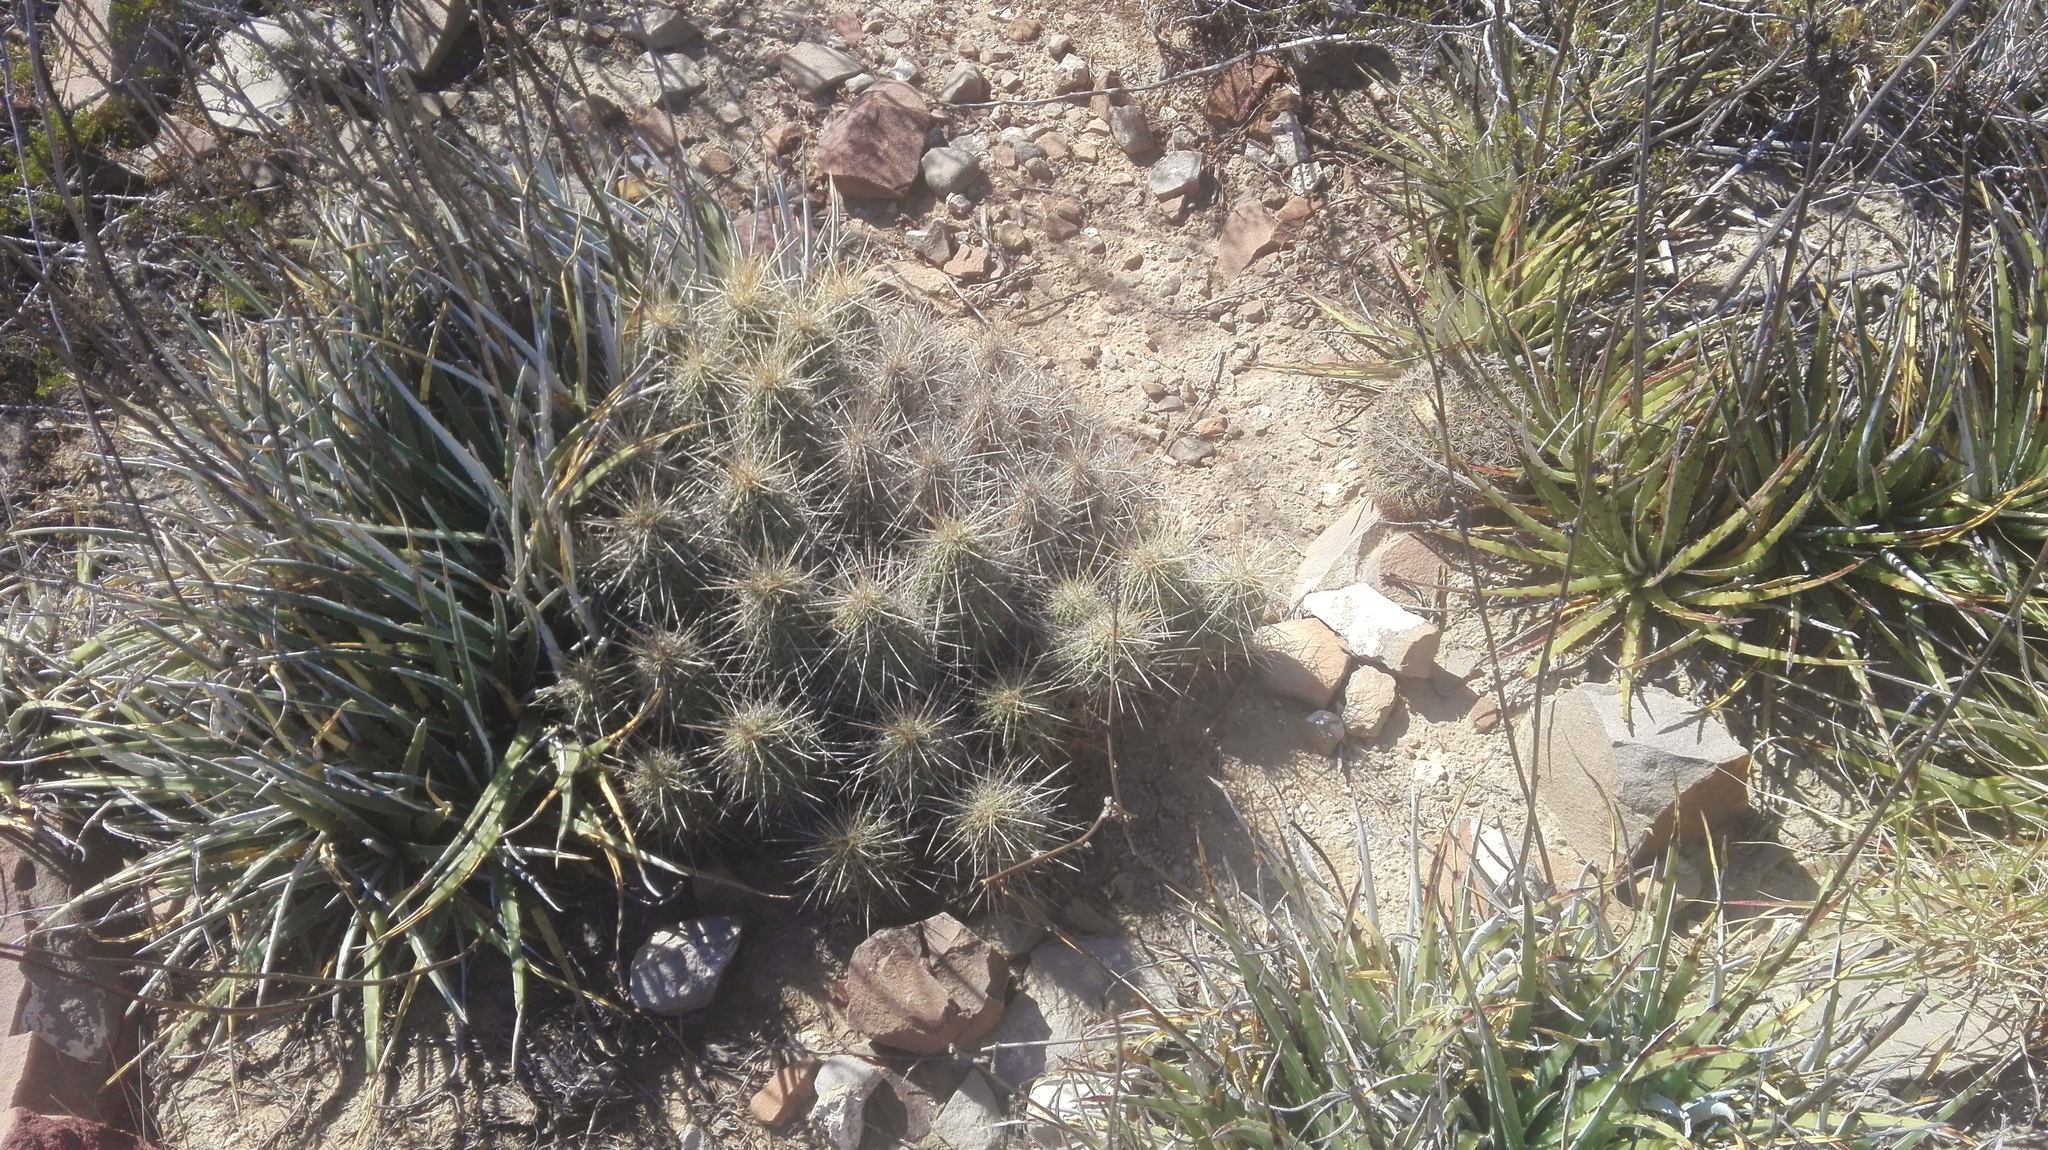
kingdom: Plantae
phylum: Tracheophyta
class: Magnoliopsida
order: Caryophyllales
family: Cactaceae
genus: Echinocereus
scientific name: Echinocereus stramineus
